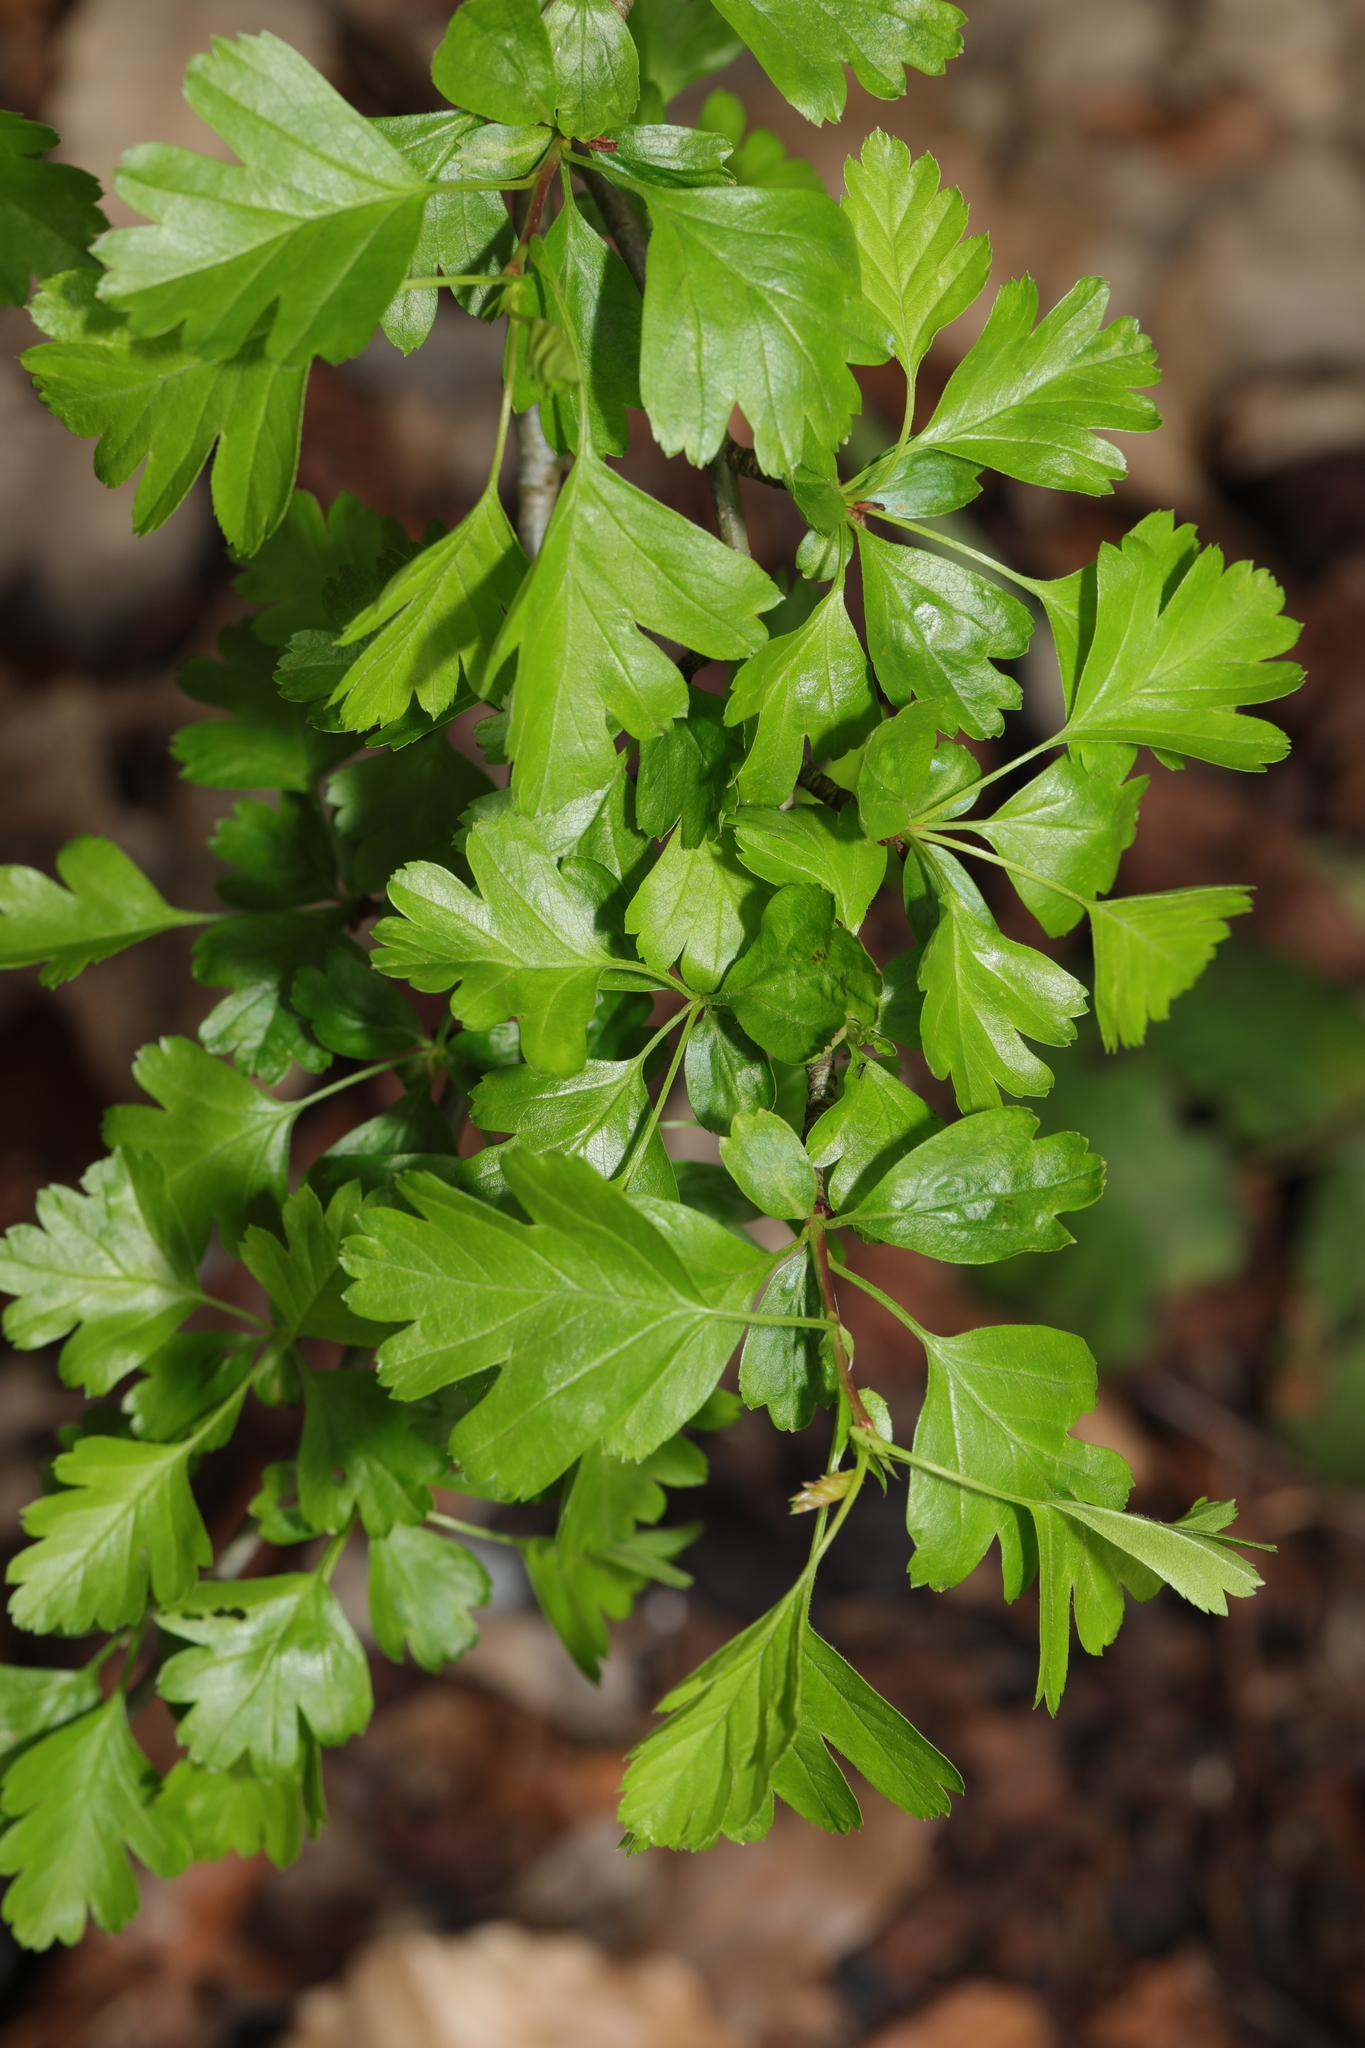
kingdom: Plantae
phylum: Tracheophyta
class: Magnoliopsida
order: Rosales
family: Rosaceae
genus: Crataegus
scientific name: Crataegus monogyna
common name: Hawthorn
